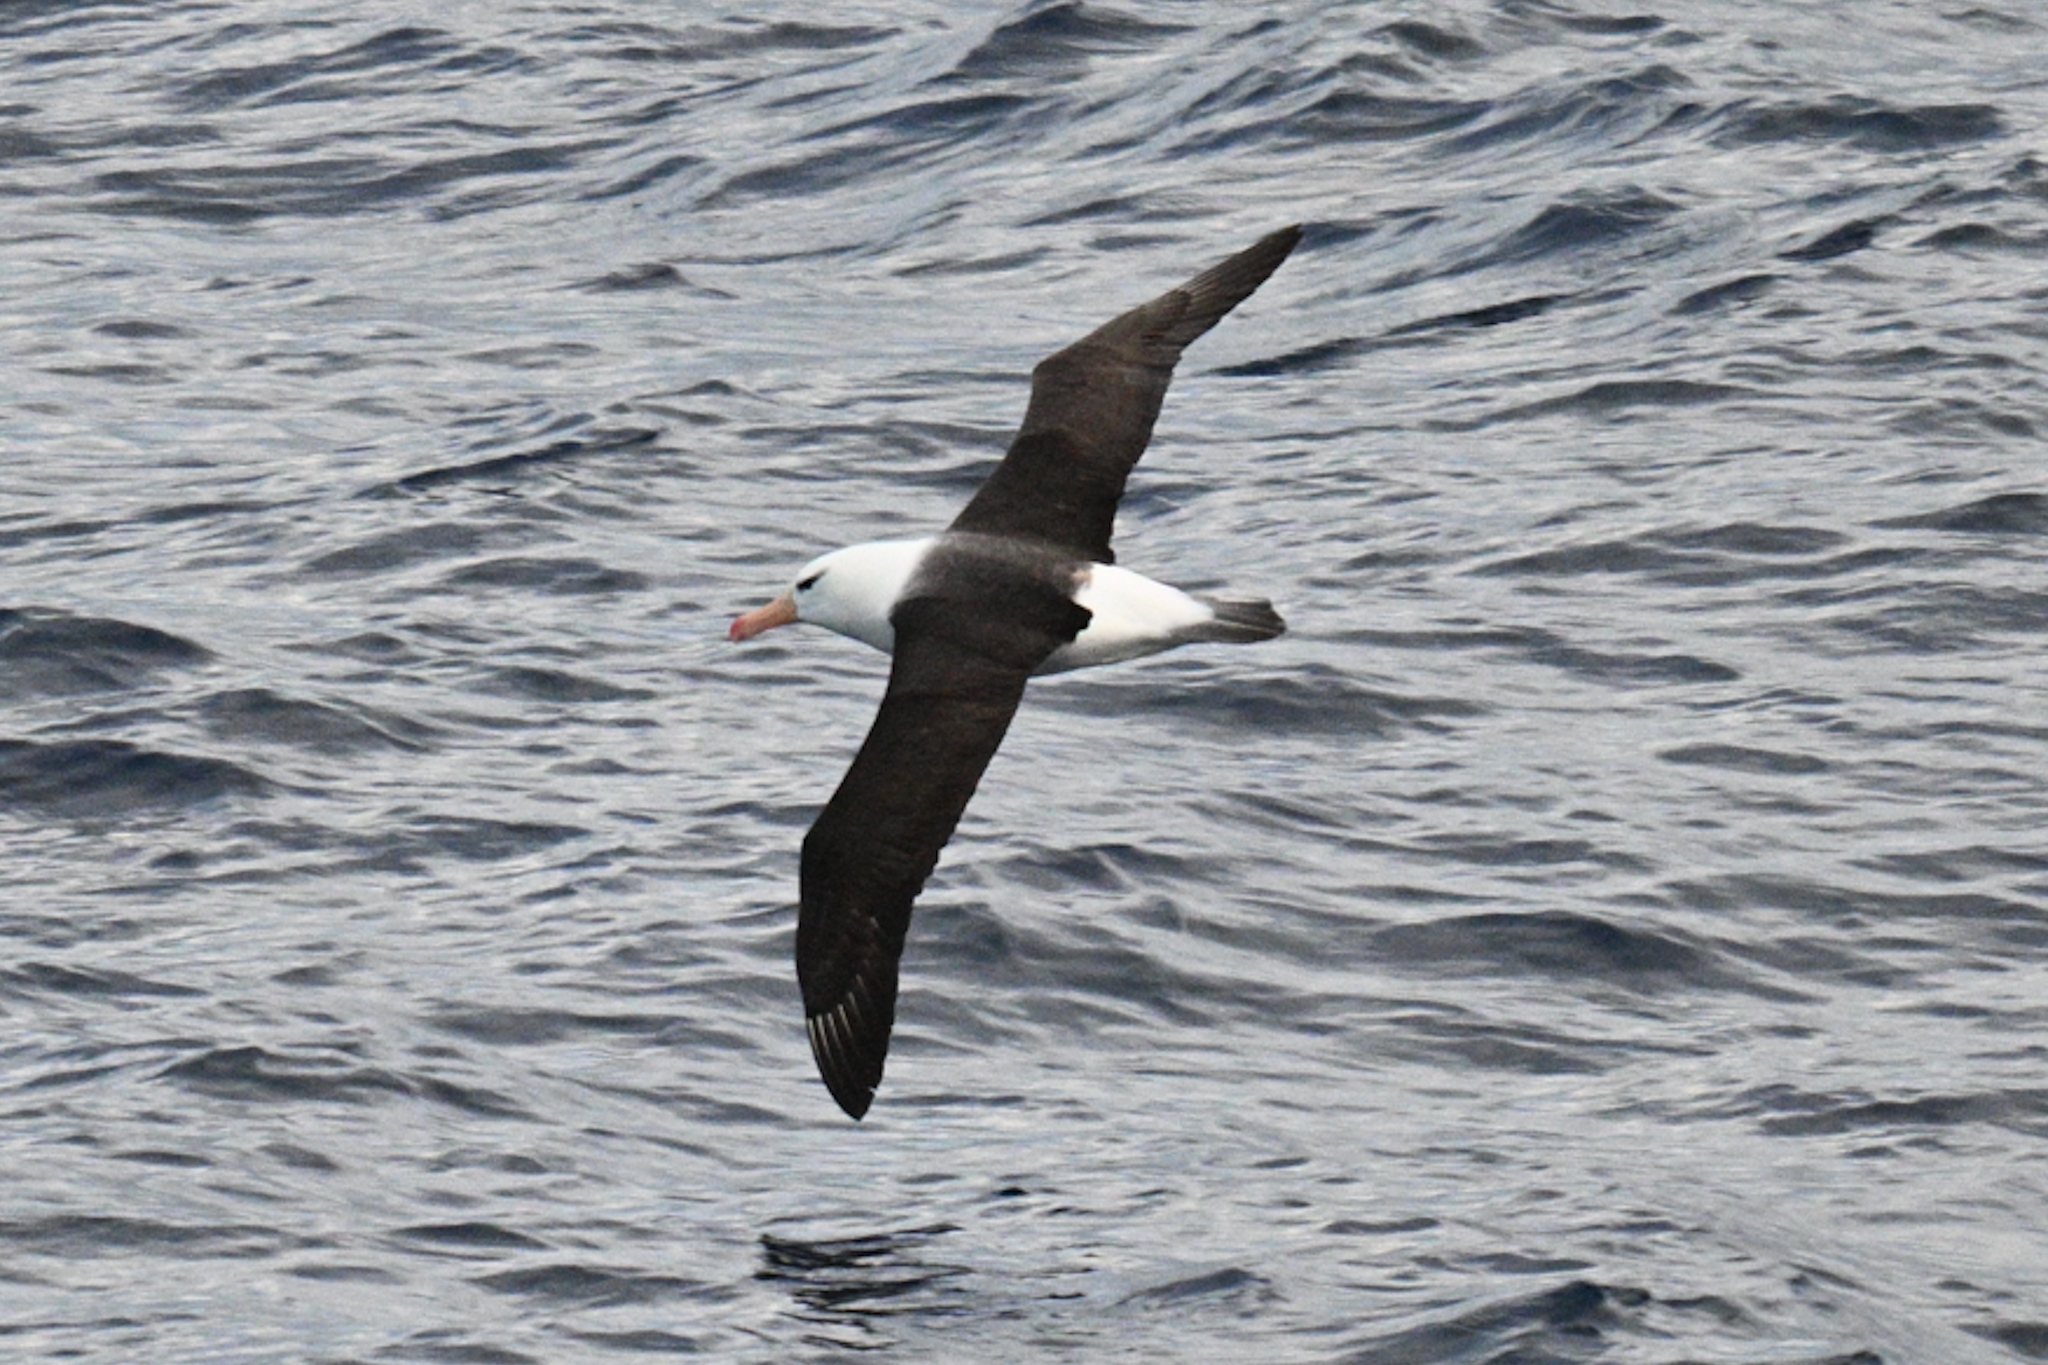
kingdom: Animalia
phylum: Chordata
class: Aves
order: Procellariiformes
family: Diomedeidae
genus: Thalassarche
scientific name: Thalassarche melanophris
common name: Black-browed albatross
